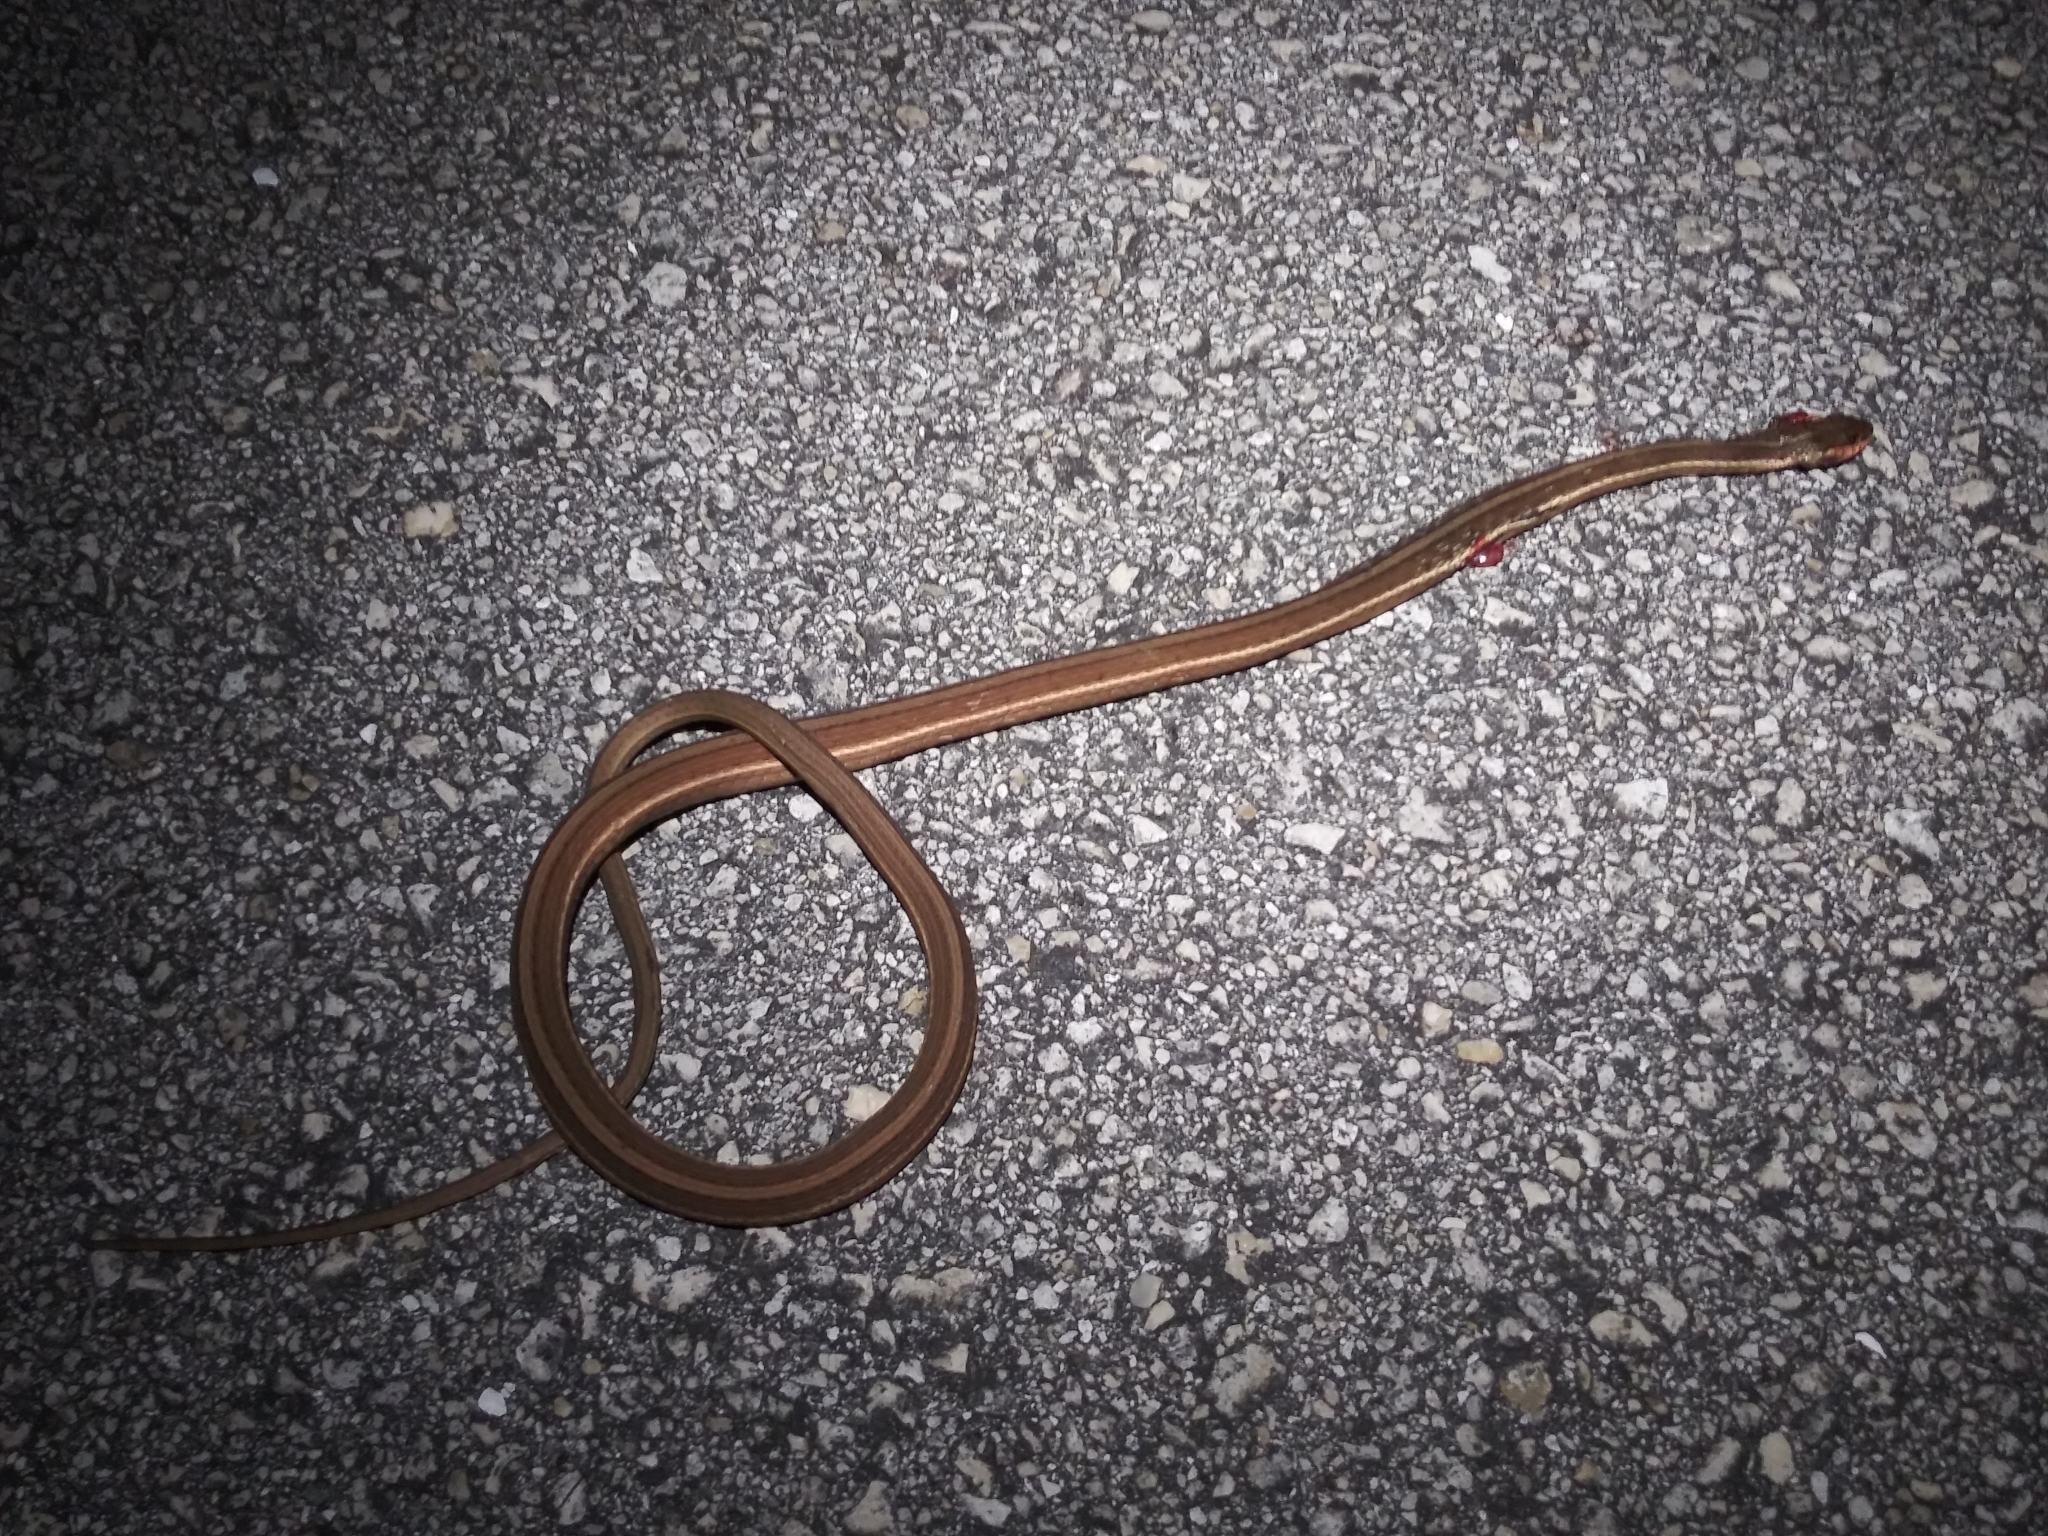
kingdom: Animalia
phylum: Chordata
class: Squamata
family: Colubridae
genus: Thamnophis
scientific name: Thamnophis saurita
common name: Eastern ribbonsnake
